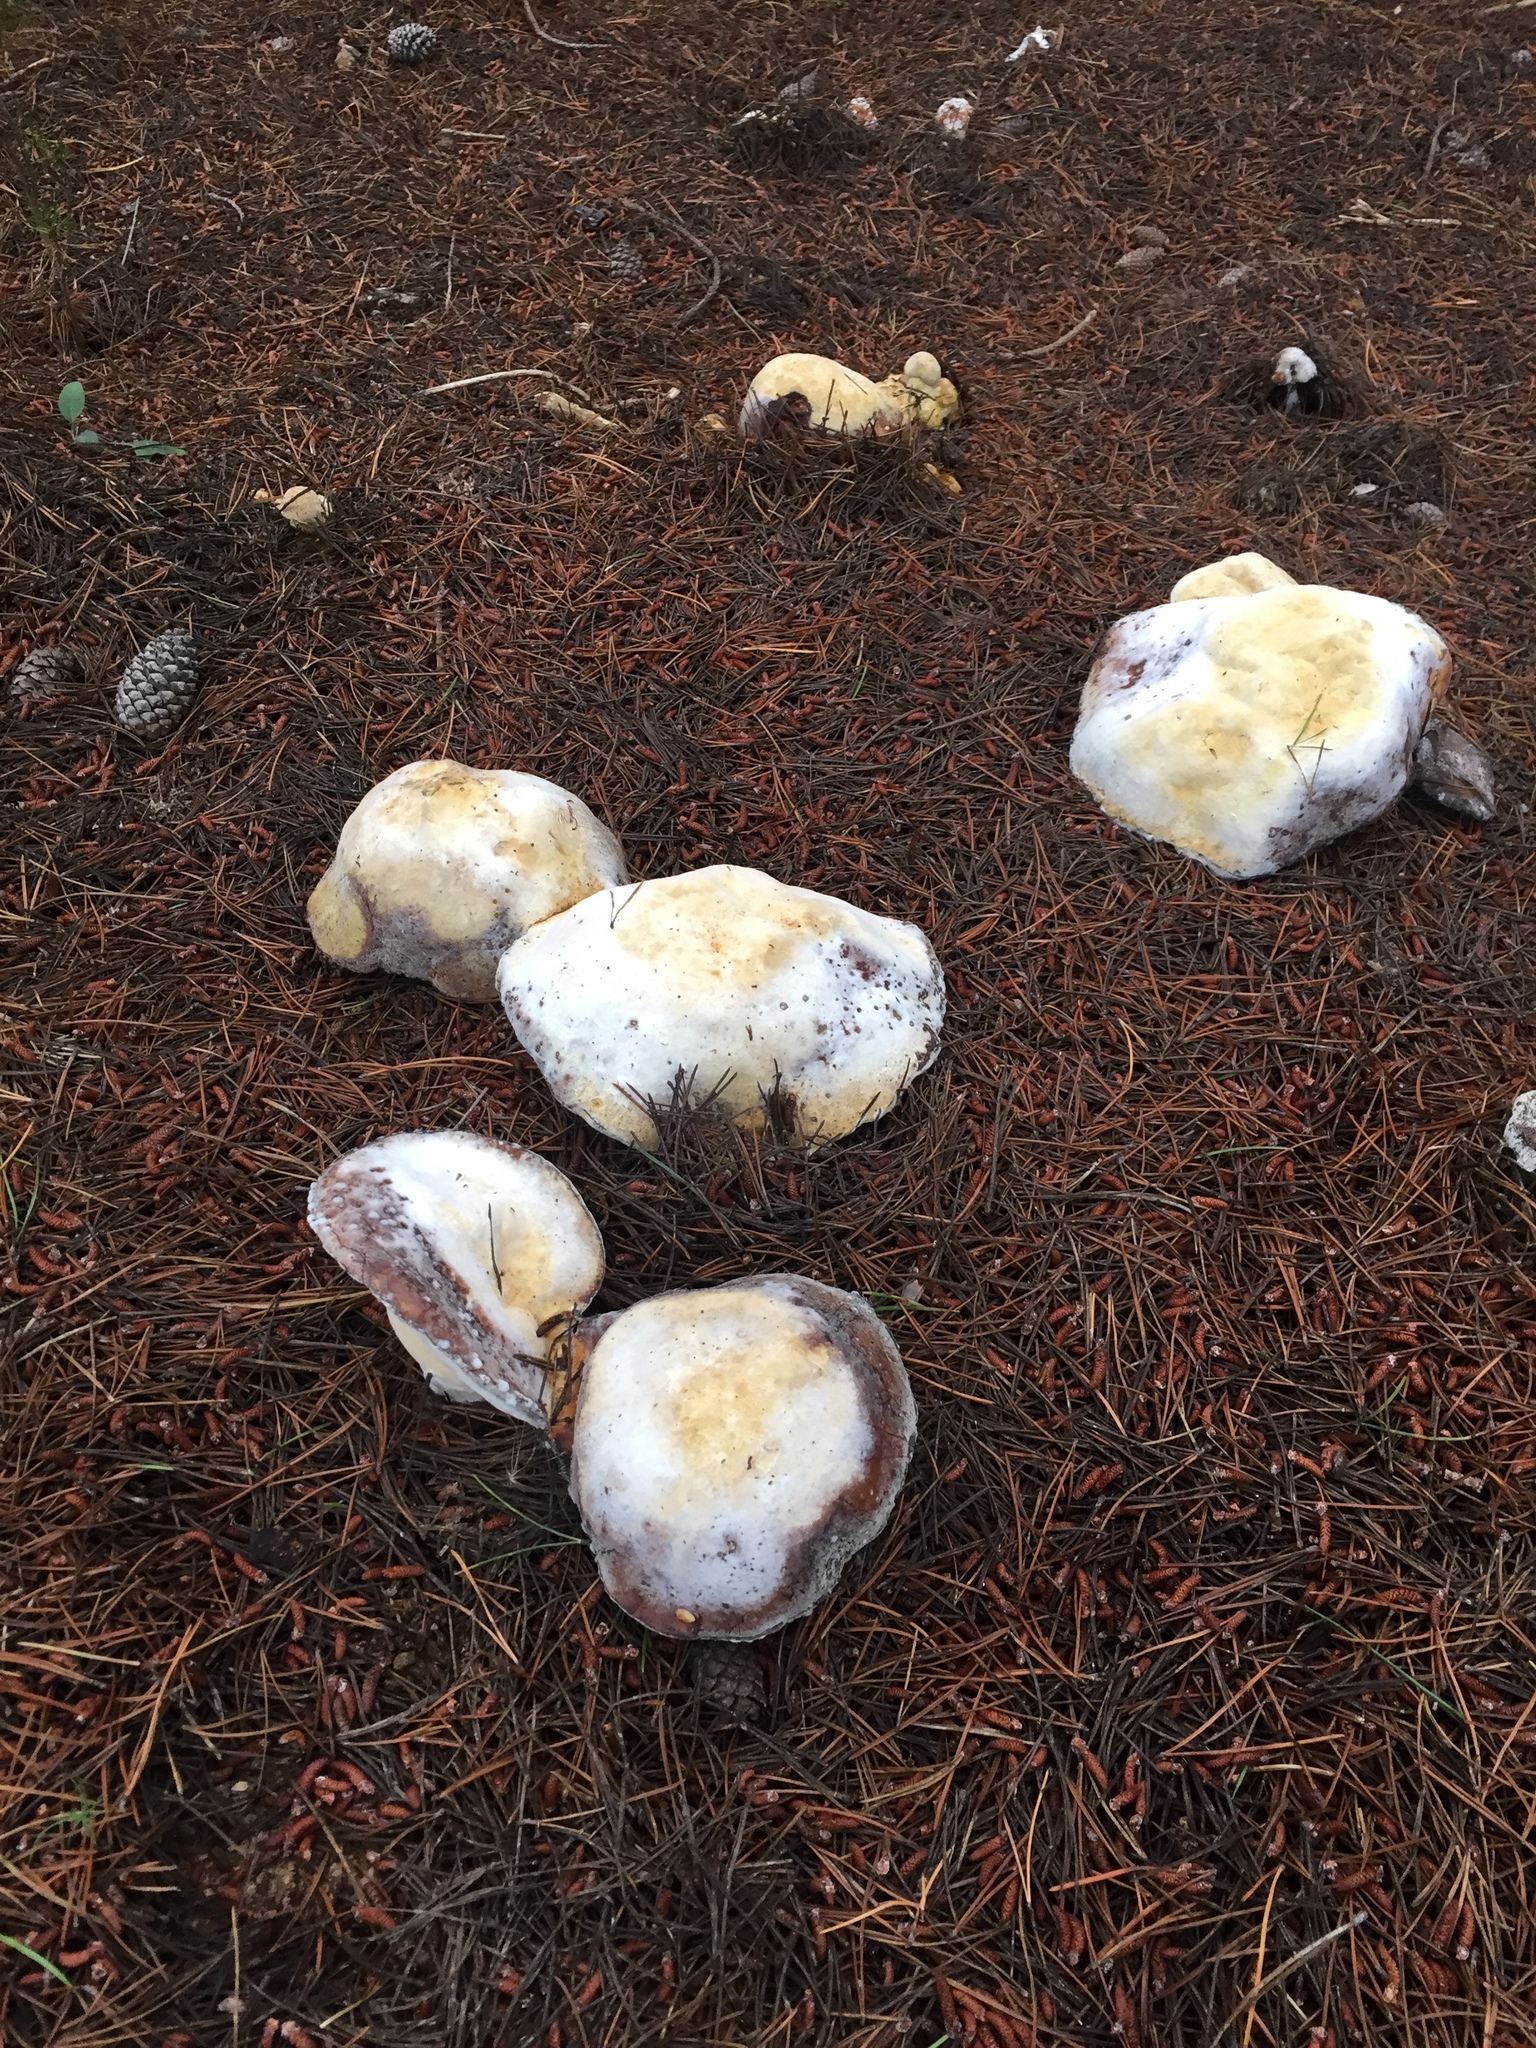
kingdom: Fungi
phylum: Basidiomycota
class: Agaricomycetes
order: Boletales
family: Boletaceae
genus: Boletus
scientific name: Boletus edulis
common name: Cep
